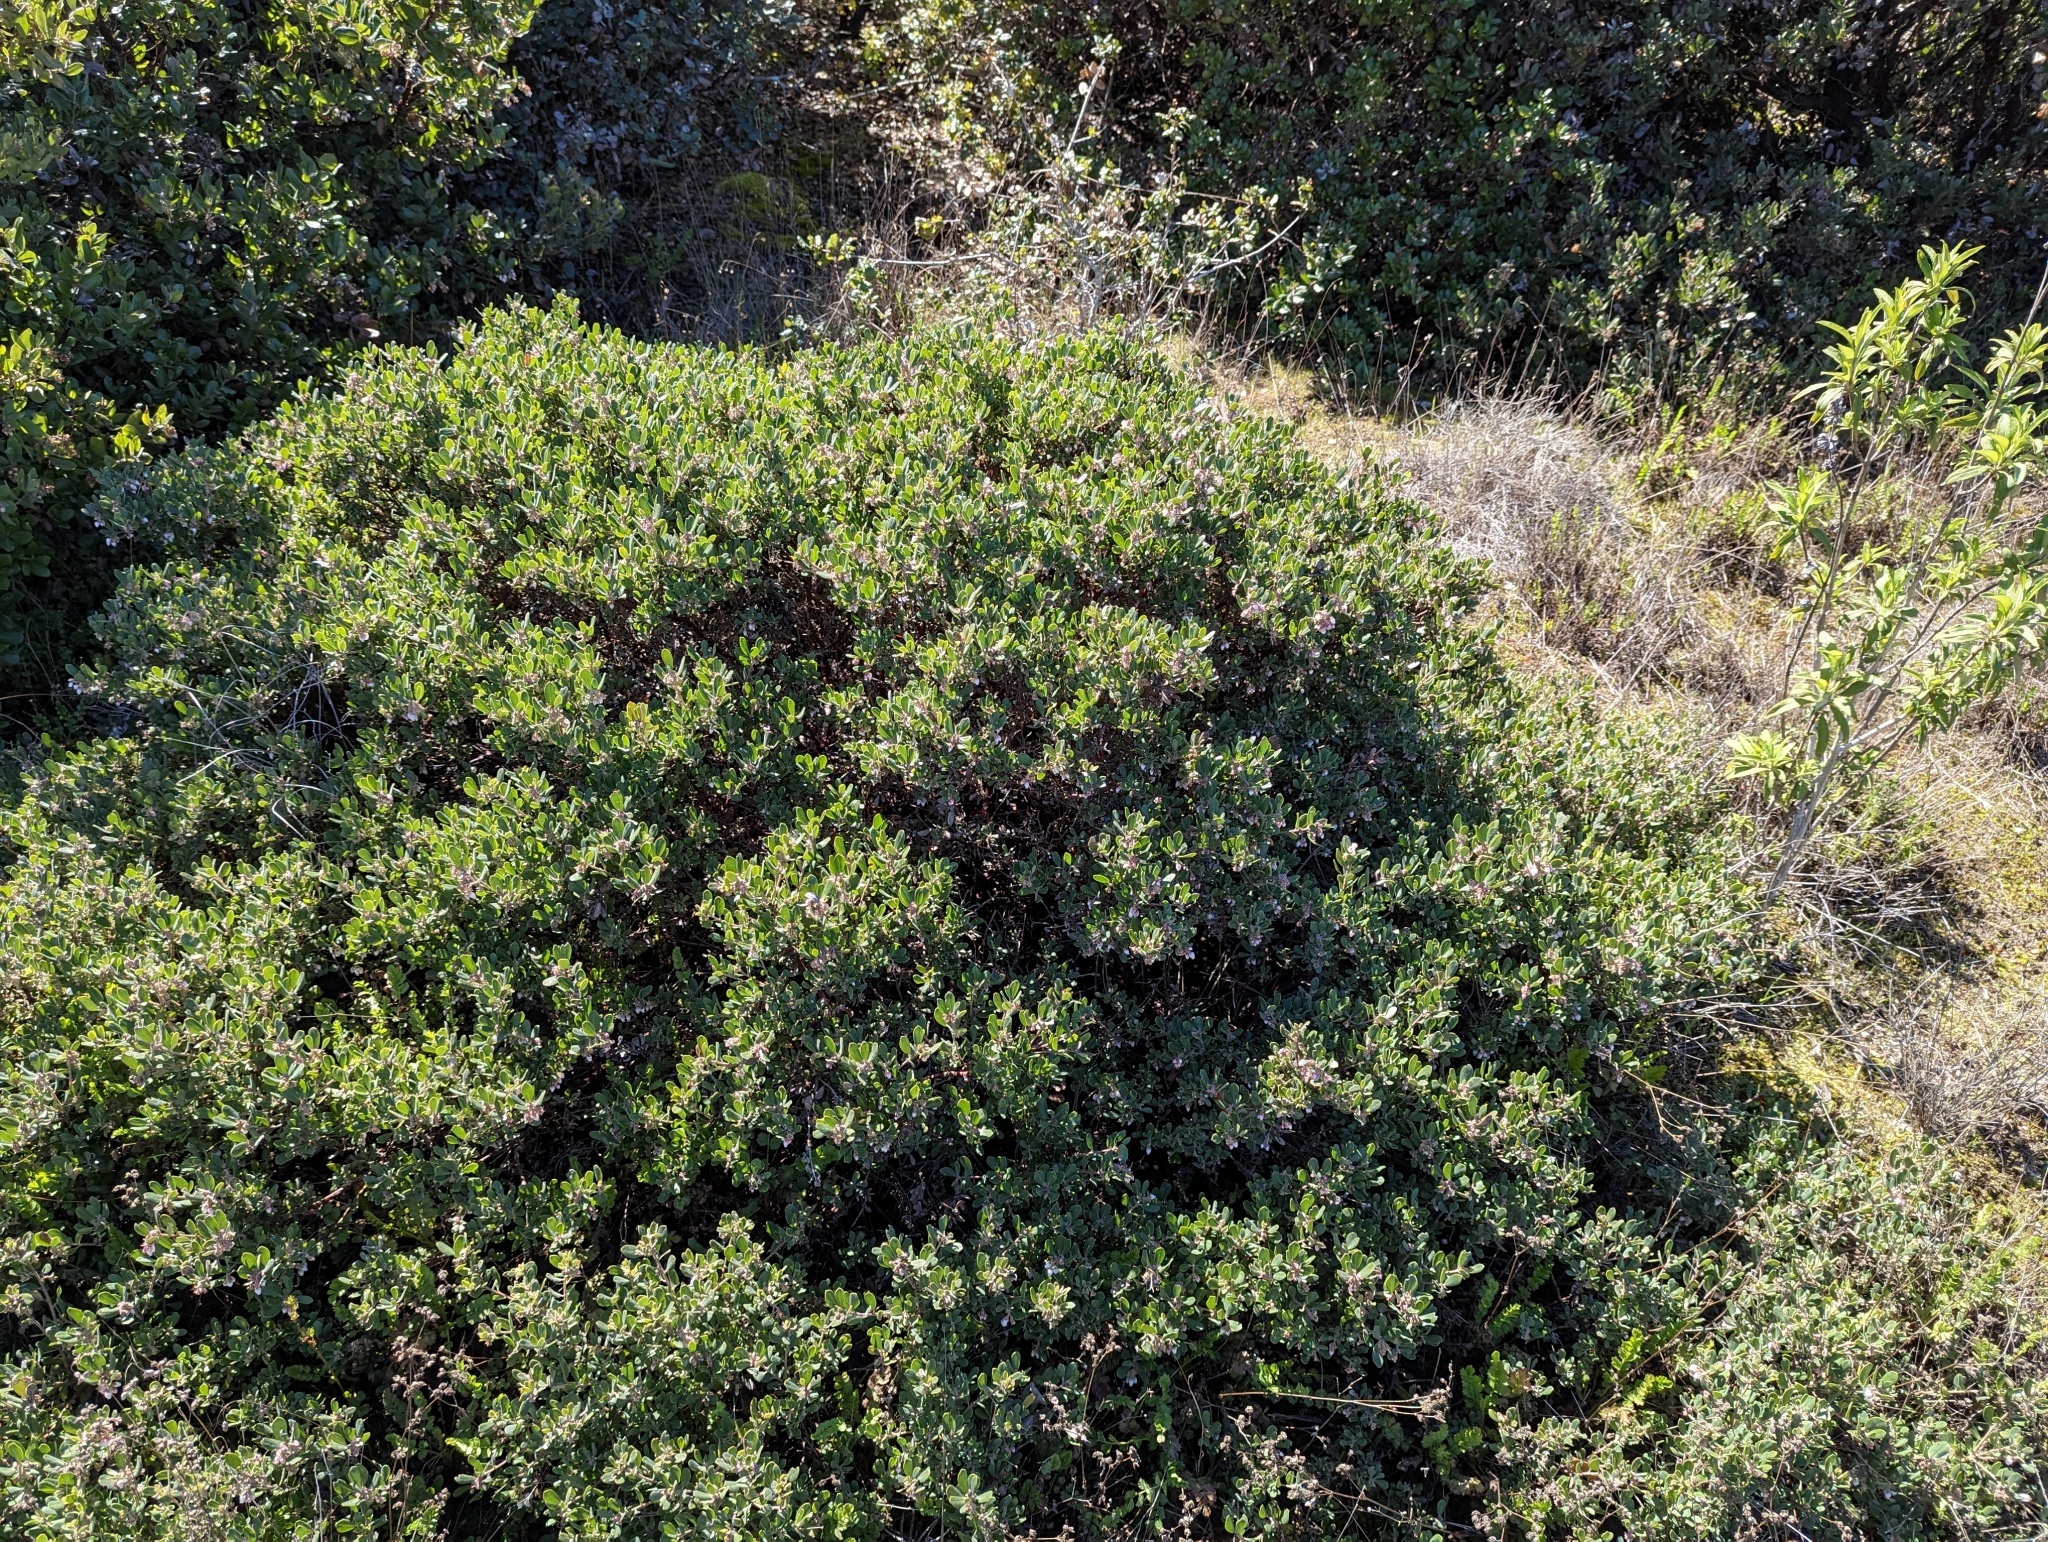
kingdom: Plantae
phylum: Tracheophyta
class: Magnoliopsida
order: Ericales
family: Ericaceae
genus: Arctostaphylos
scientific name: Arctostaphylos pumila
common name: Sandmat manzanita
